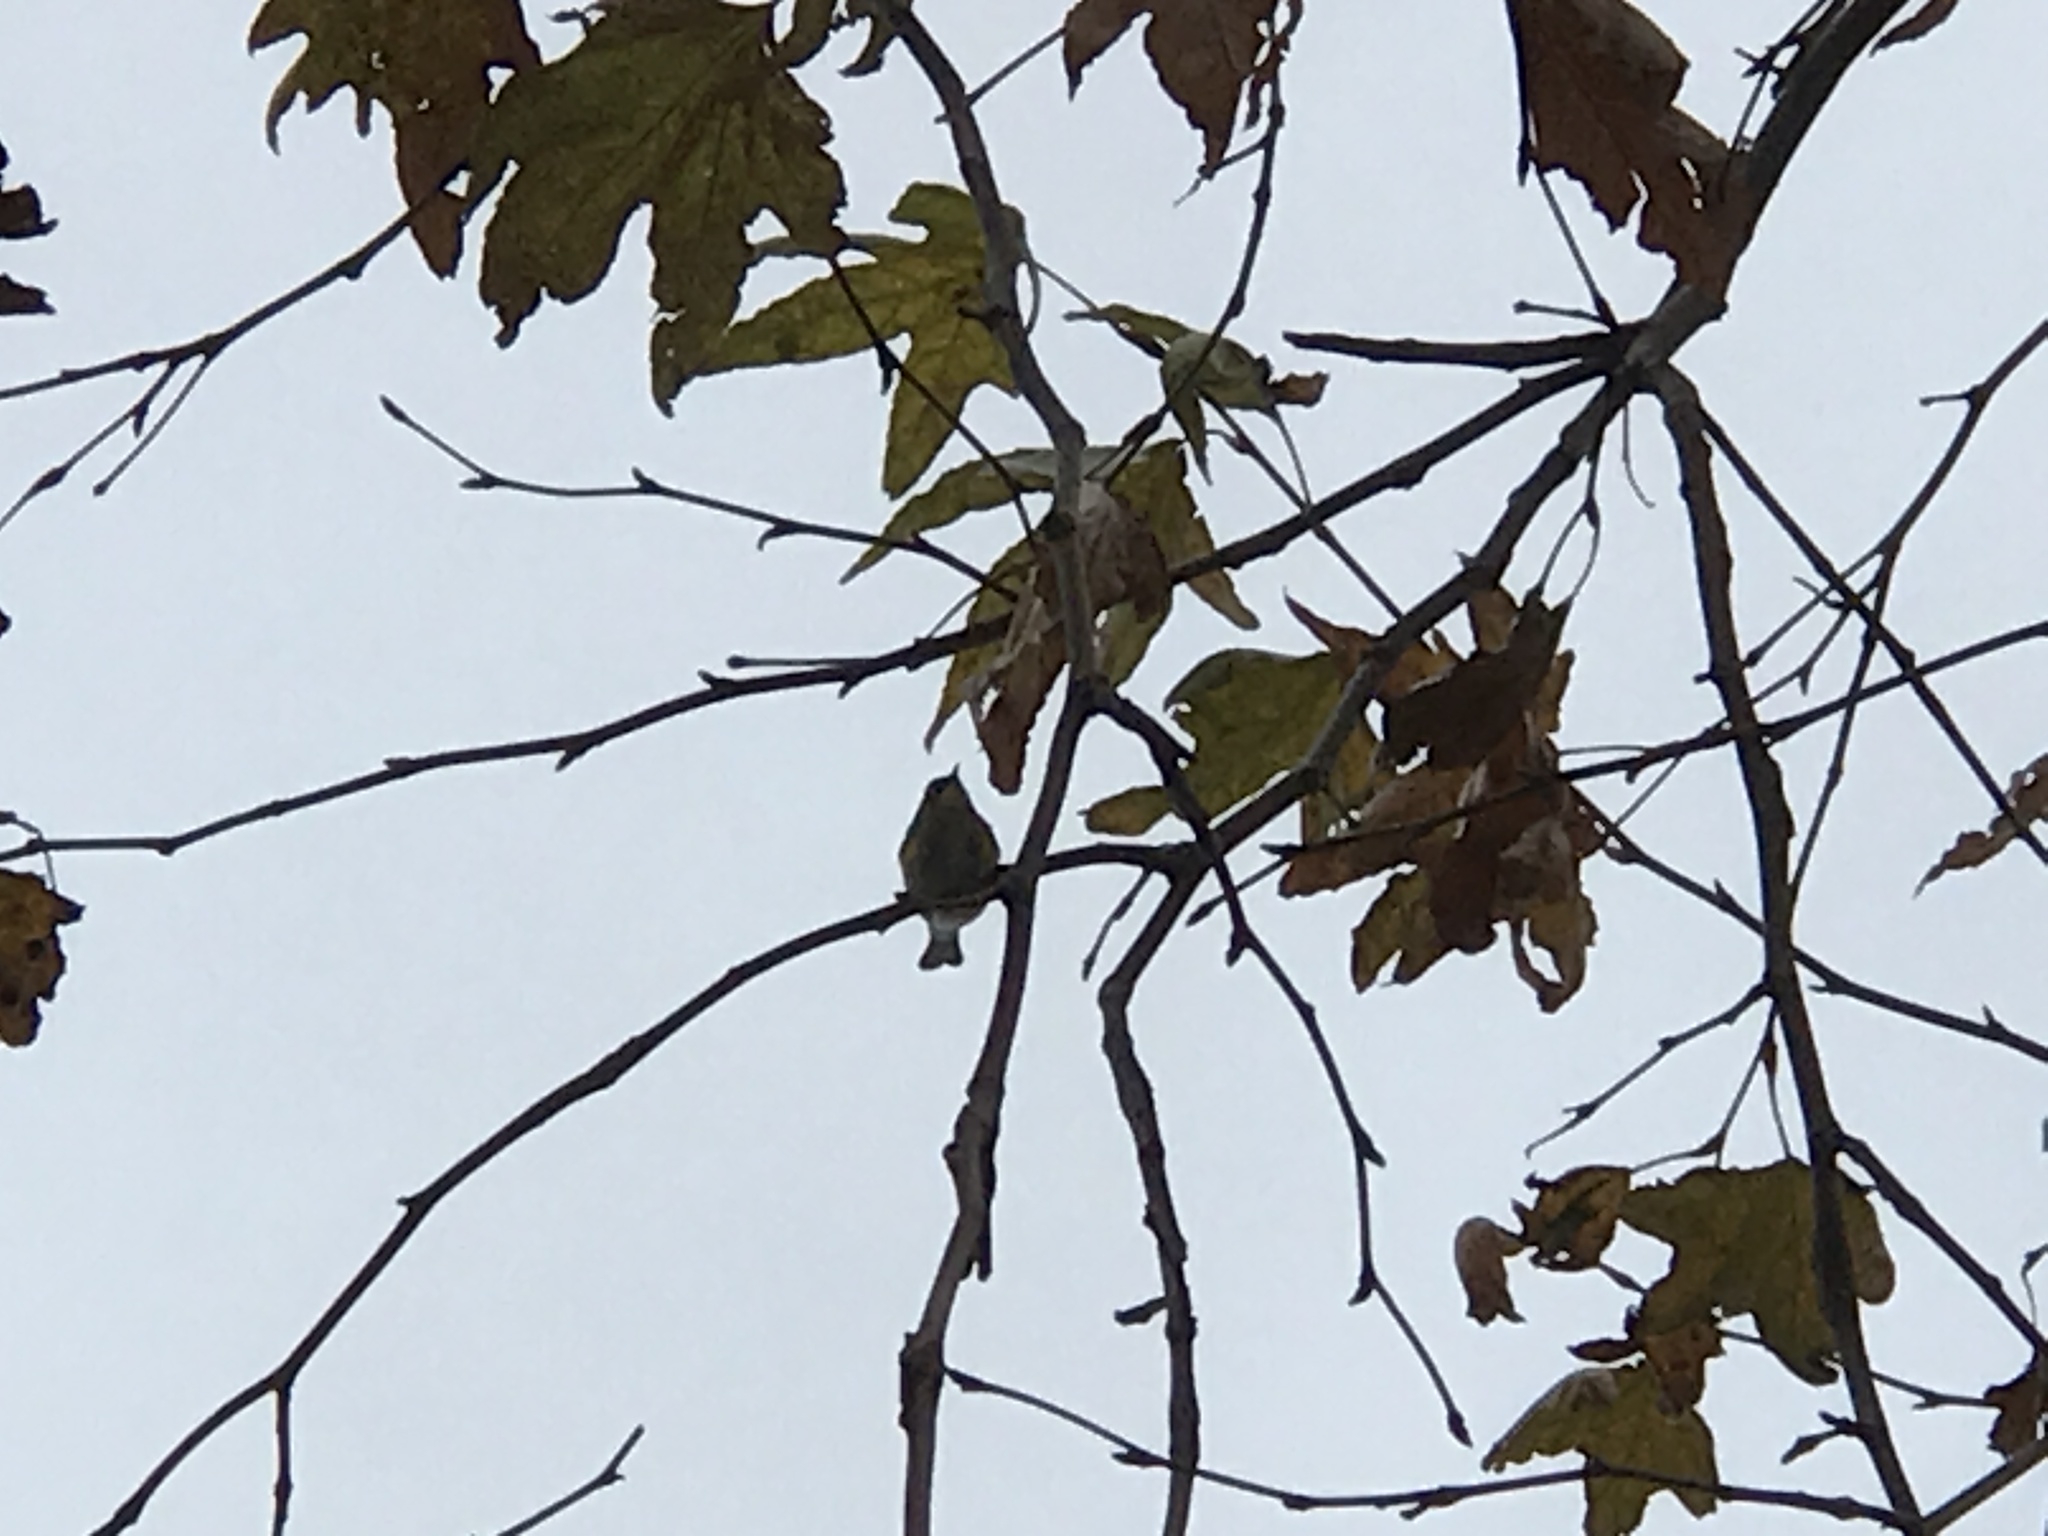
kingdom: Animalia
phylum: Chordata
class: Aves
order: Passeriformes
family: Parulidae
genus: Setophaga
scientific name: Setophaga coronata
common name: Myrtle warbler
